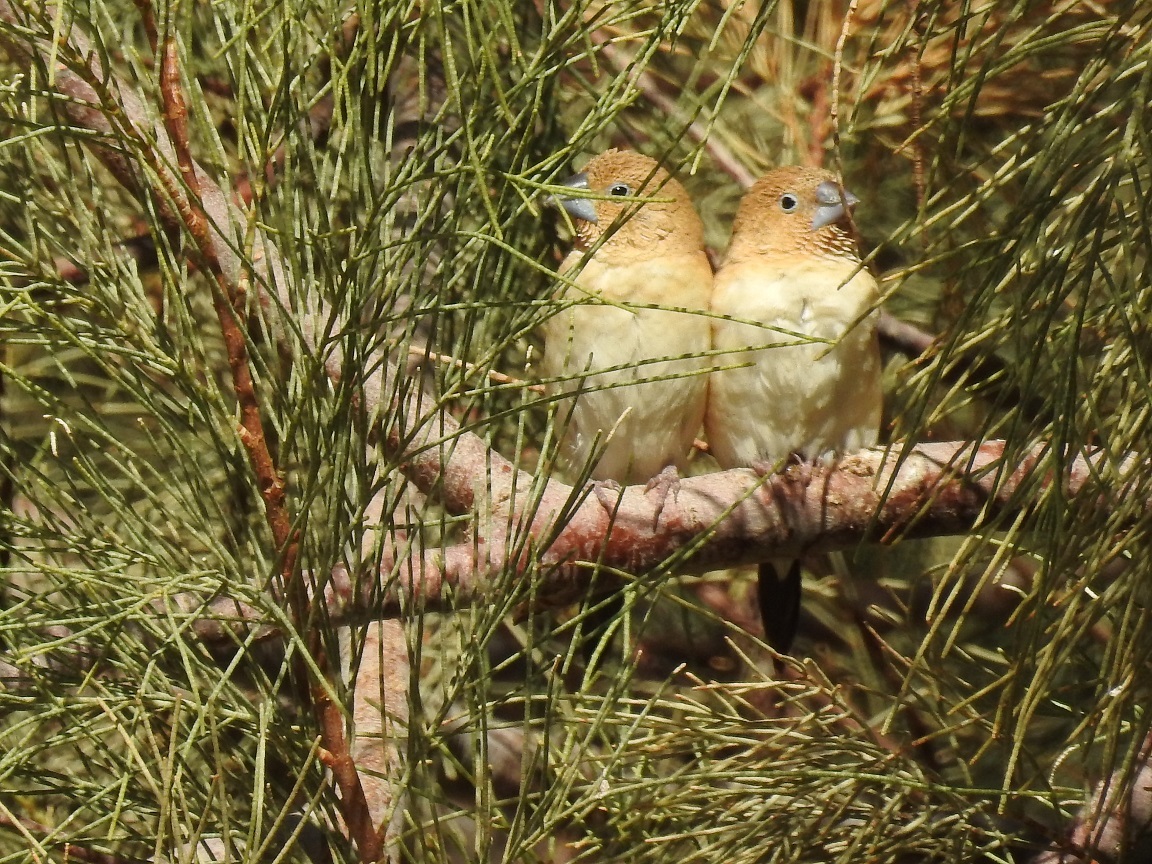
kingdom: Animalia
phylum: Chordata
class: Aves
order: Passeriformes
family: Estrildidae
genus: Euodice
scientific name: Euodice cantans
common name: African silverbill
